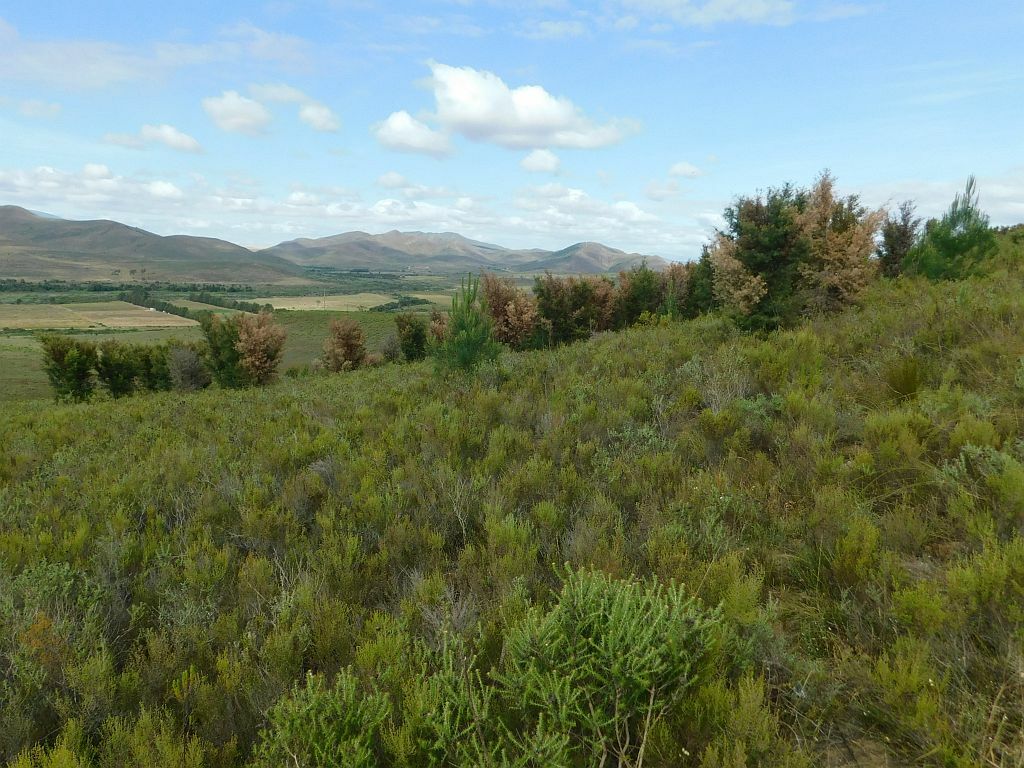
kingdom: Animalia
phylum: Arthropoda
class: Insecta
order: Coleoptera
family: Curculionidae
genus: Erytenna
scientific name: Erytenna consputa
